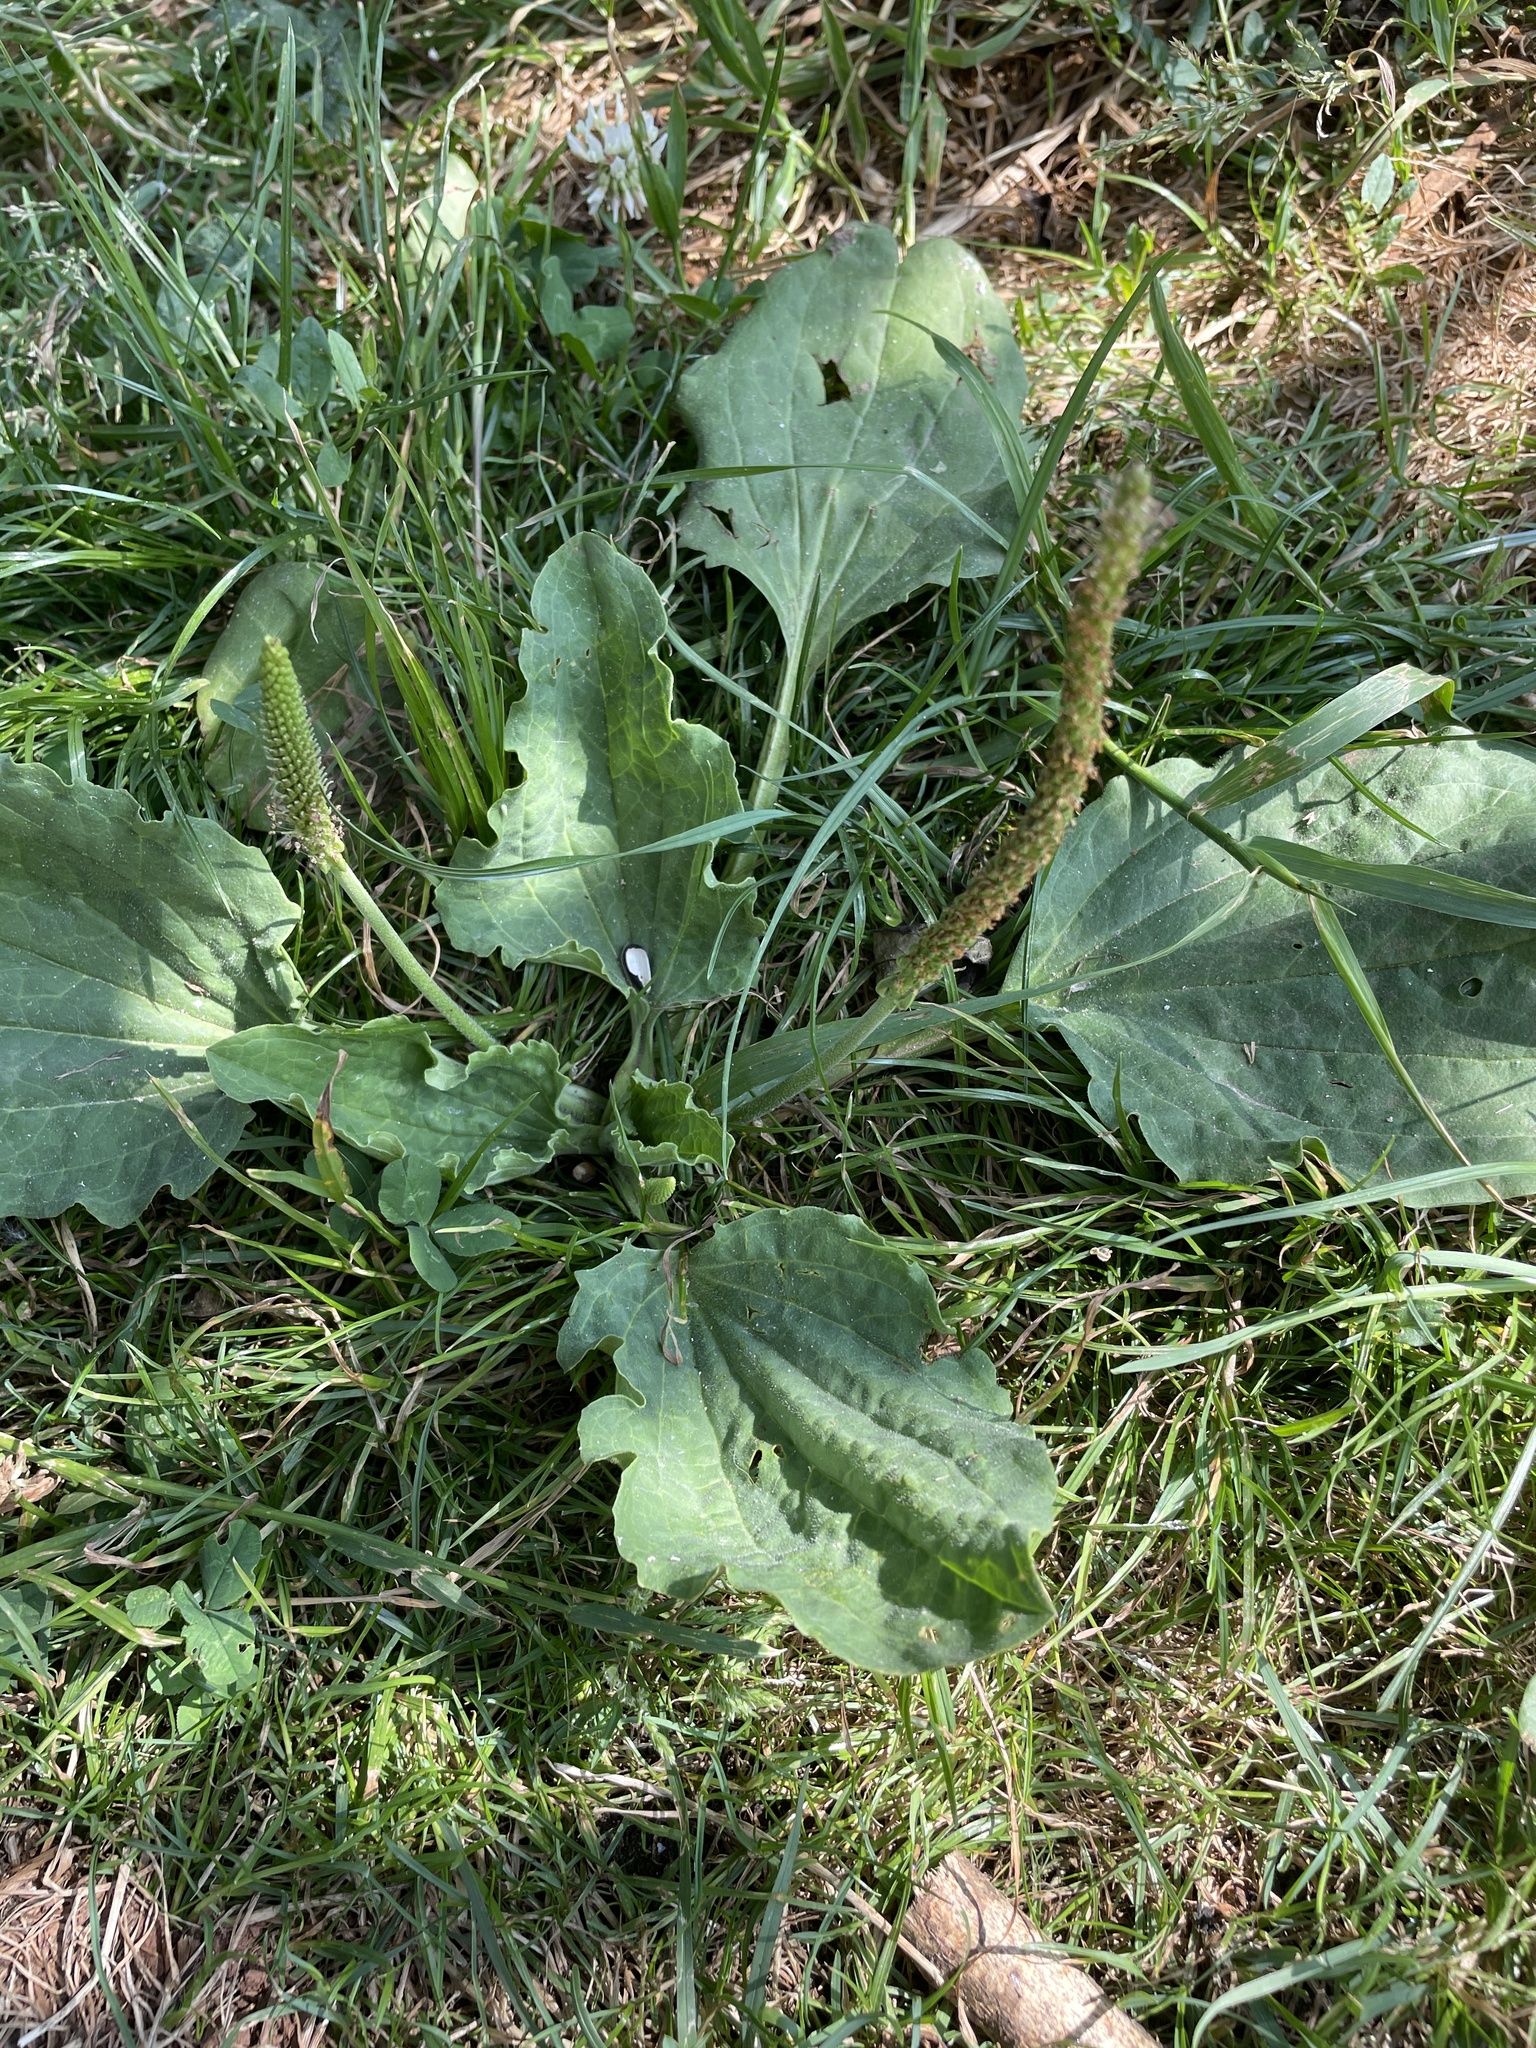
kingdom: Plantae
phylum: Tracheophyta
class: Magnoliopsida
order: Lamiales
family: Plantaginaceae
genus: Plantago
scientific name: Plantago major
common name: Common plantain
